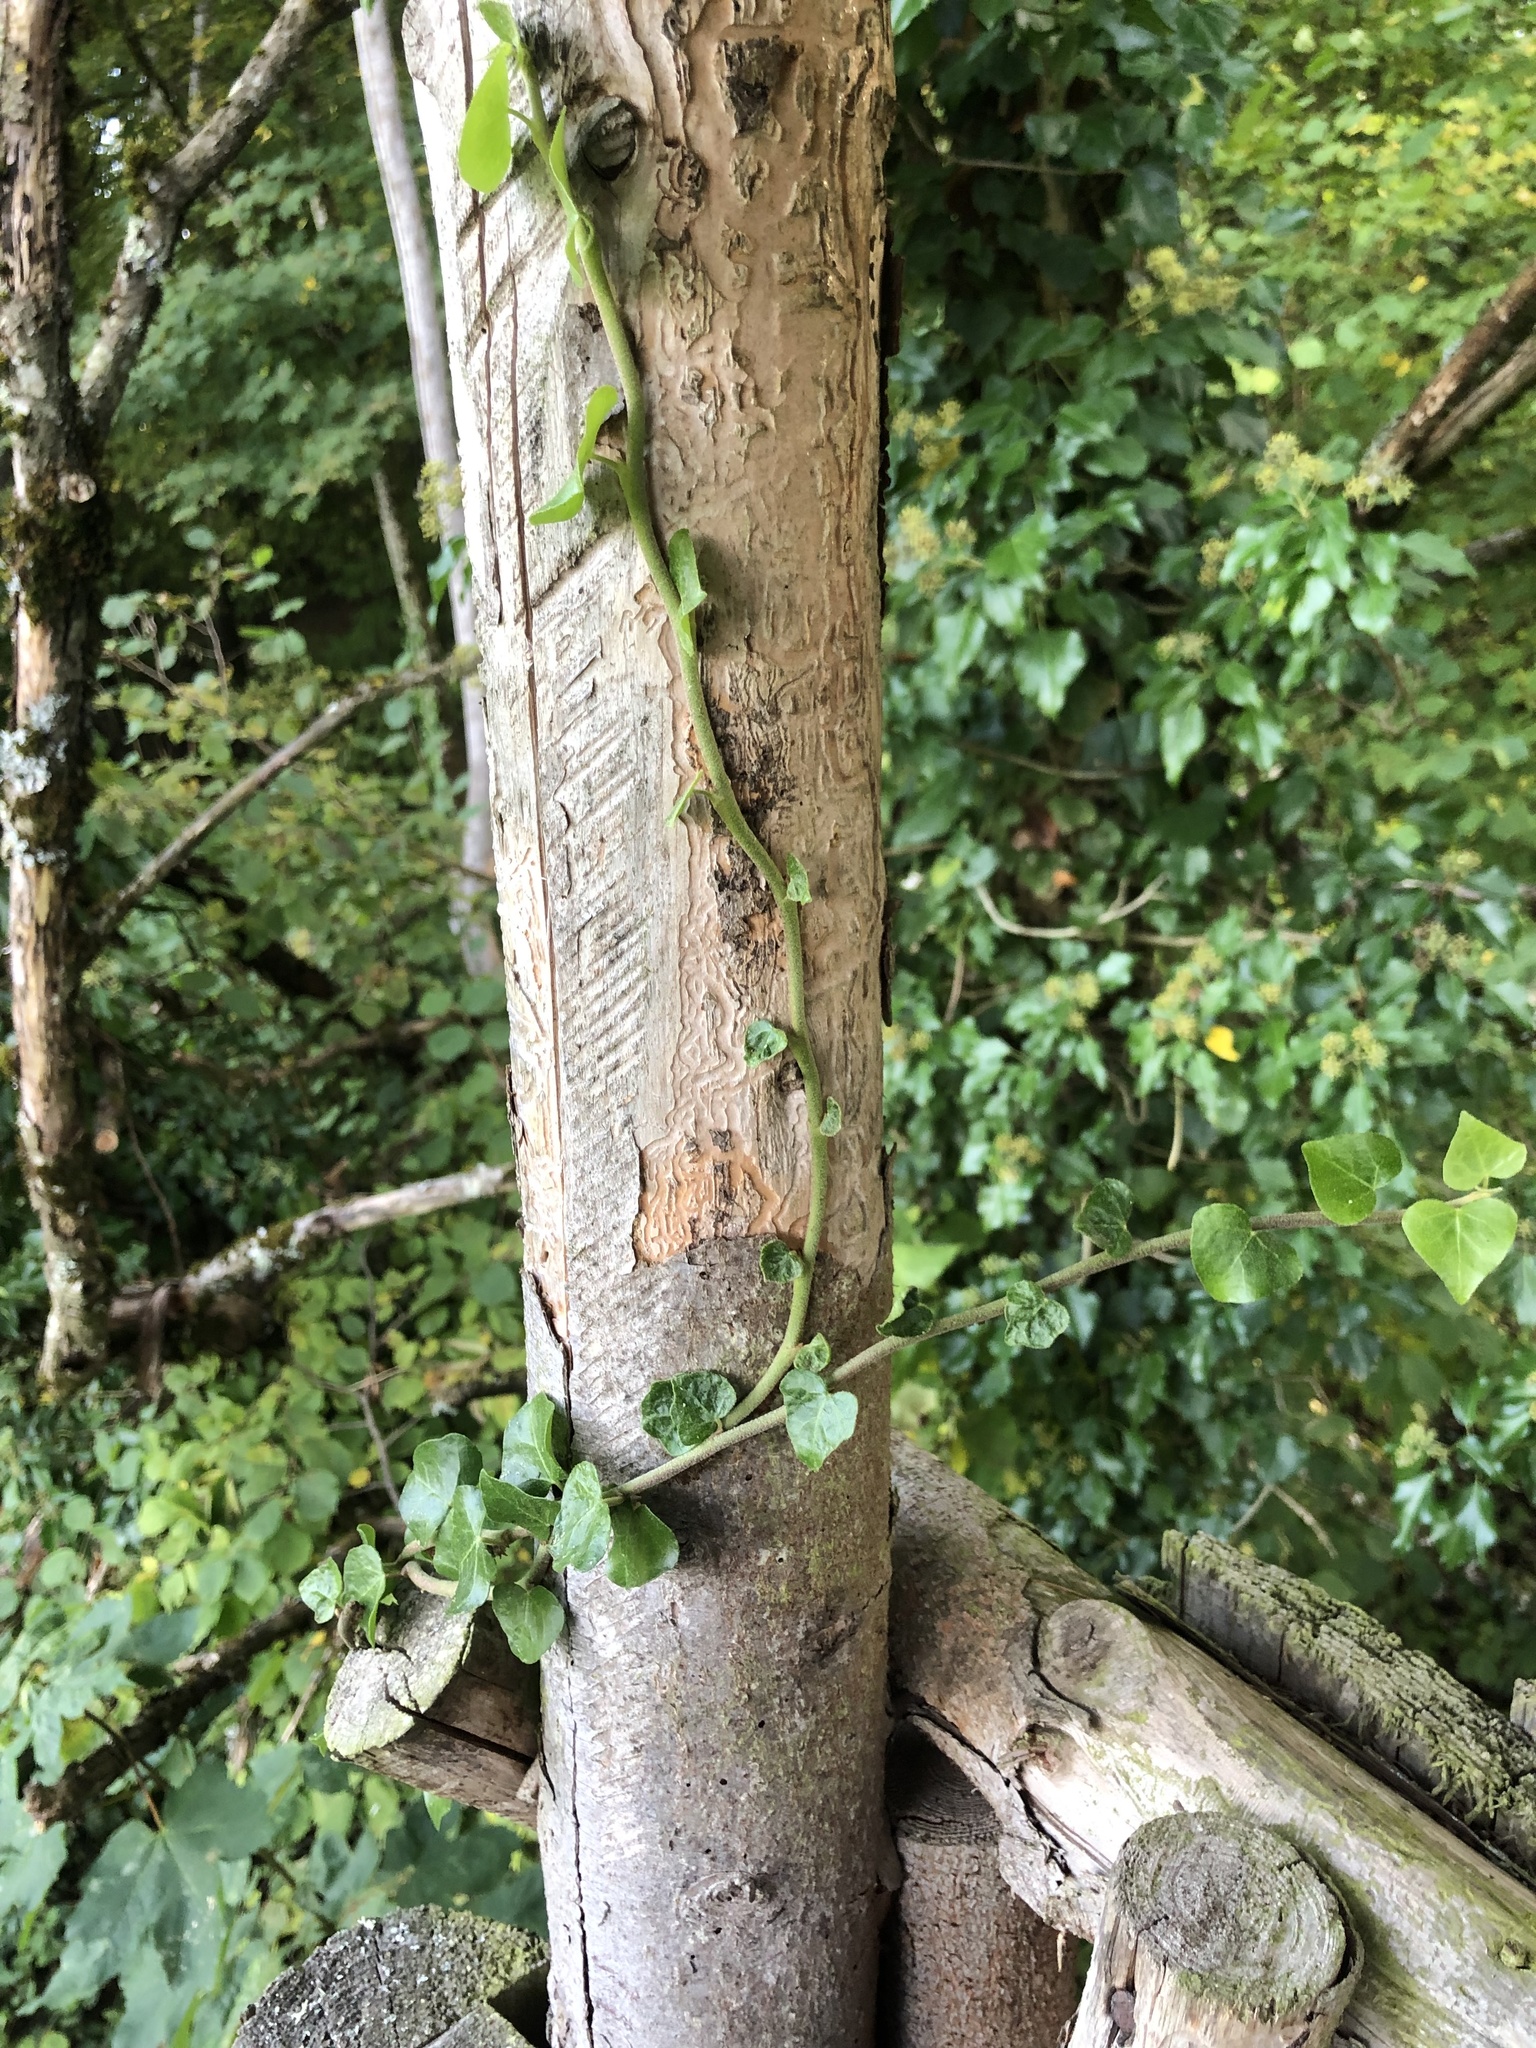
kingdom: Plantae
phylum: Tracheophyta
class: Magnoliopsida
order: Apiales
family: Araliaceae
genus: Hedera
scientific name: Hedera helix
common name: Ivy
